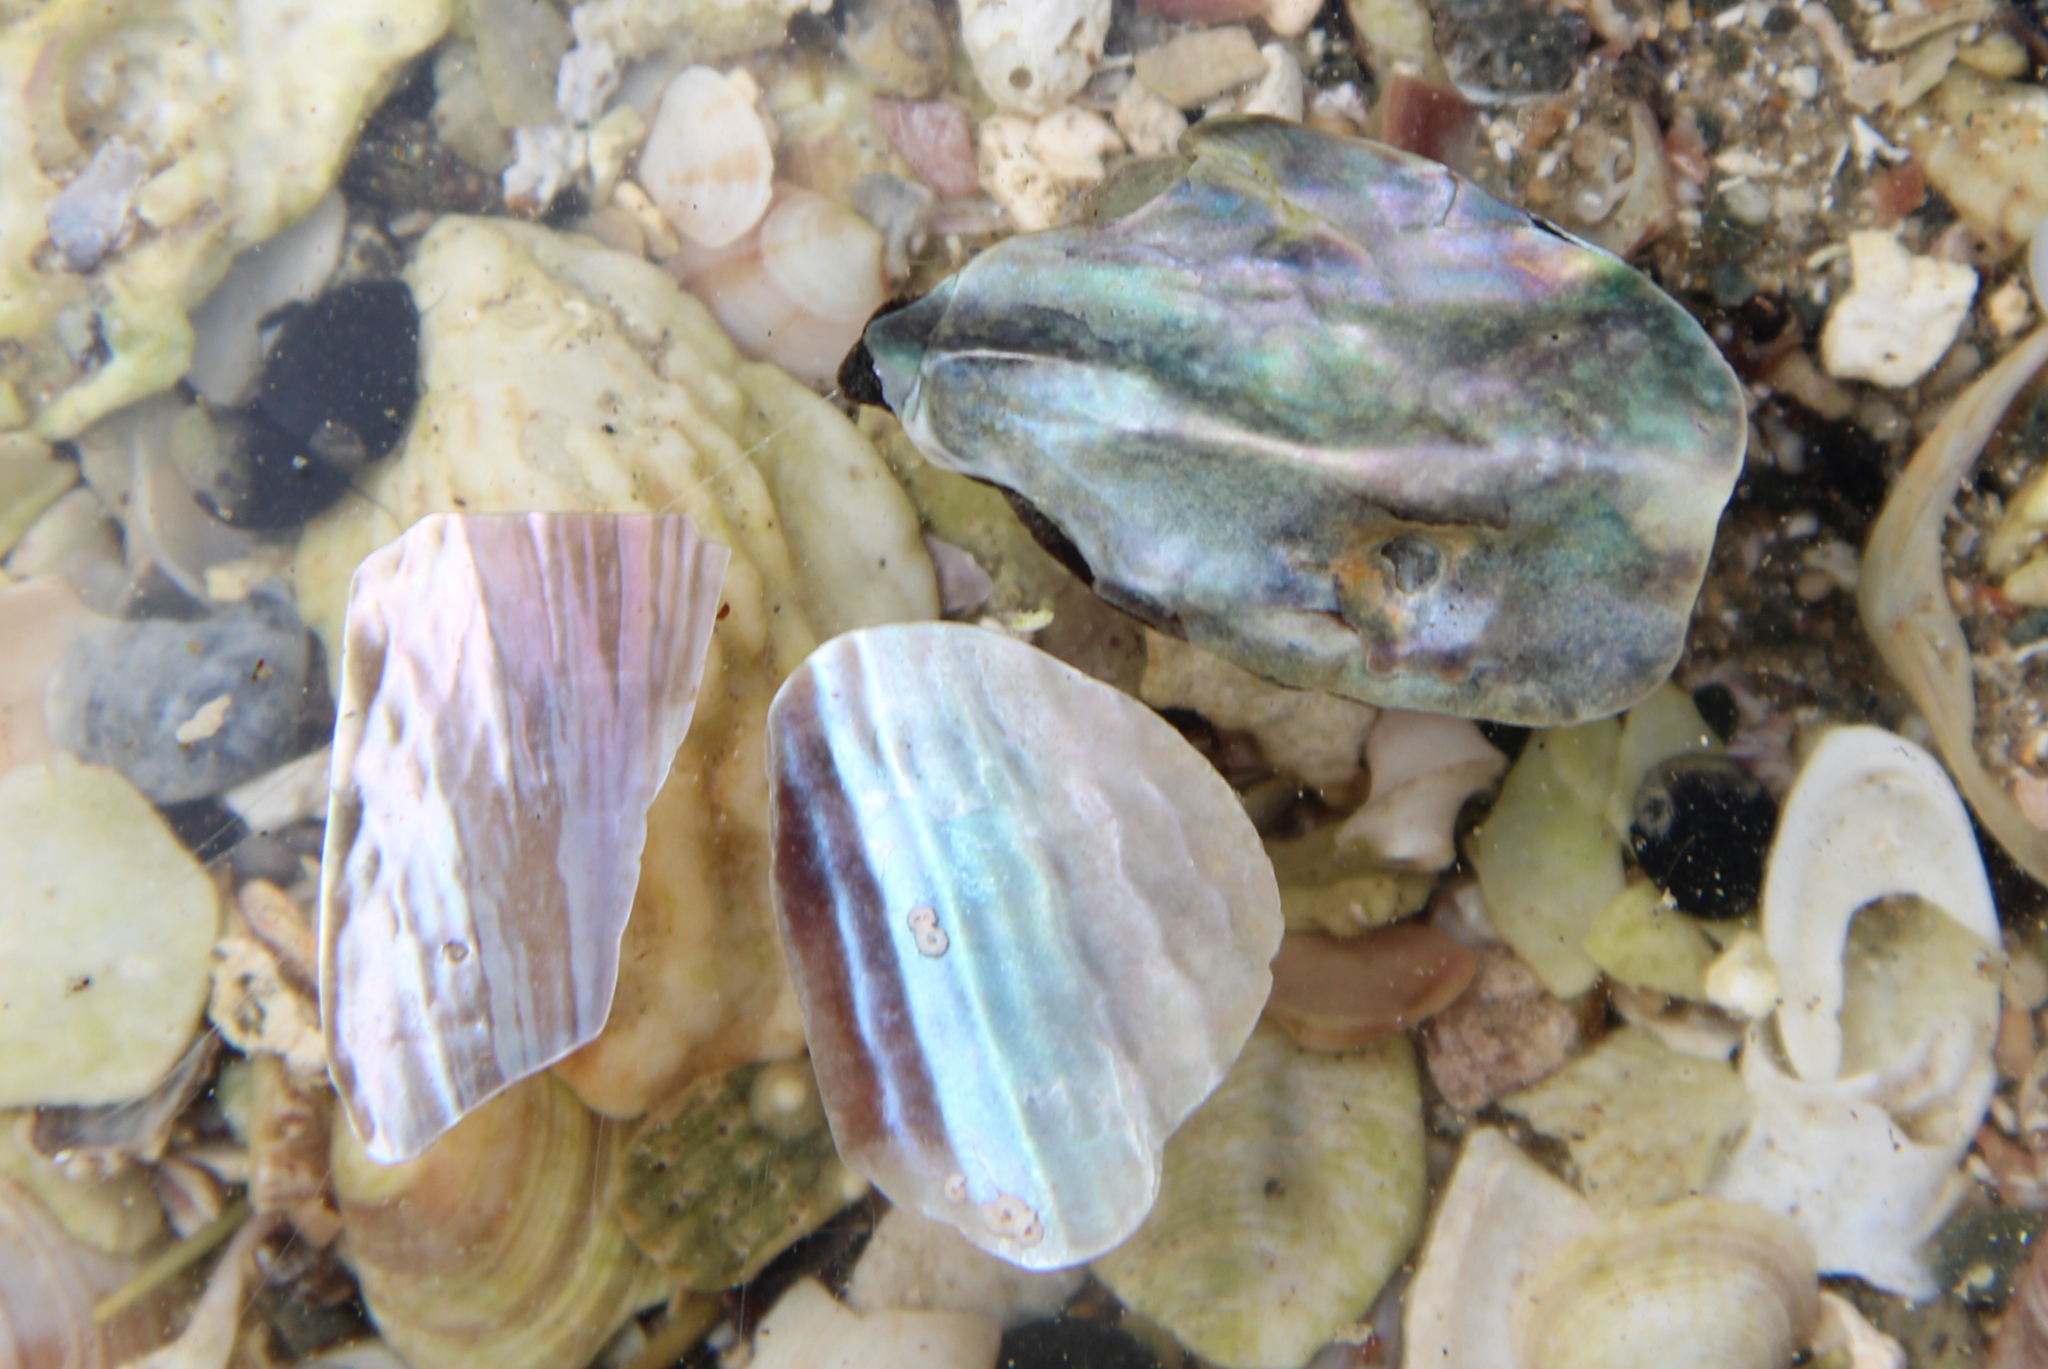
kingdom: Animalia
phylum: Mollusca
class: Bivalvia
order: Ostreida
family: Pinnidae
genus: Atrina
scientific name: Atrina zelandica
